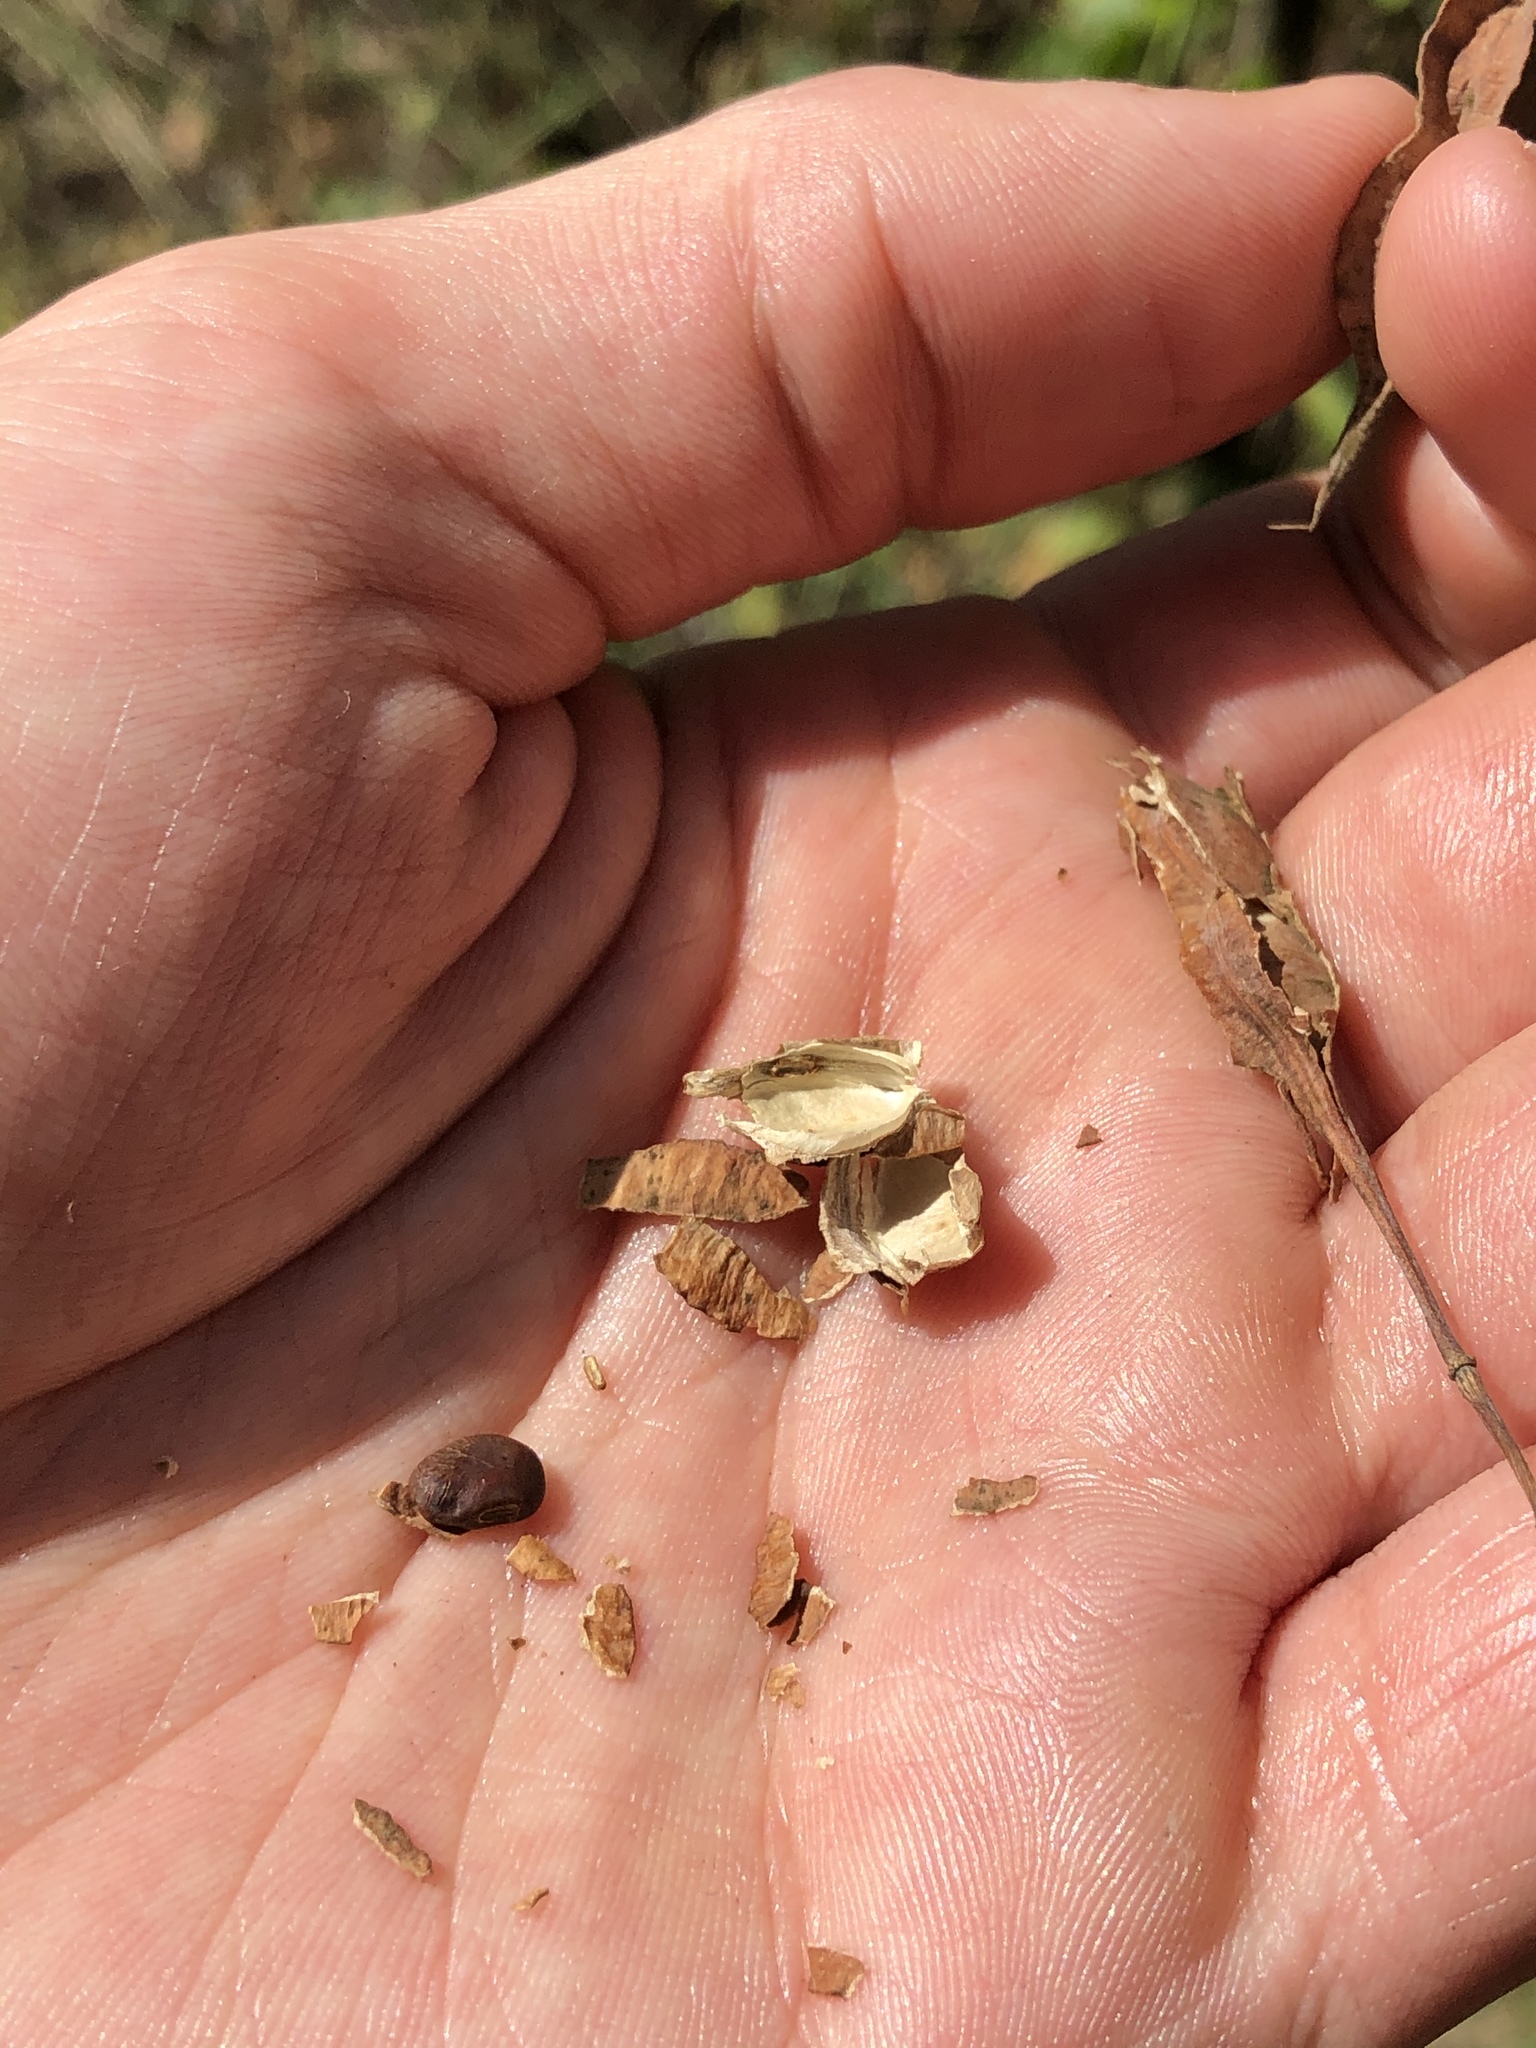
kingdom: Plantae
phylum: Tracheophyta
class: Magnoliopsida
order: Fabales
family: Fabaceae
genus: Sesbania
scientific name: Sesbania drummondii
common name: Poison-bean
